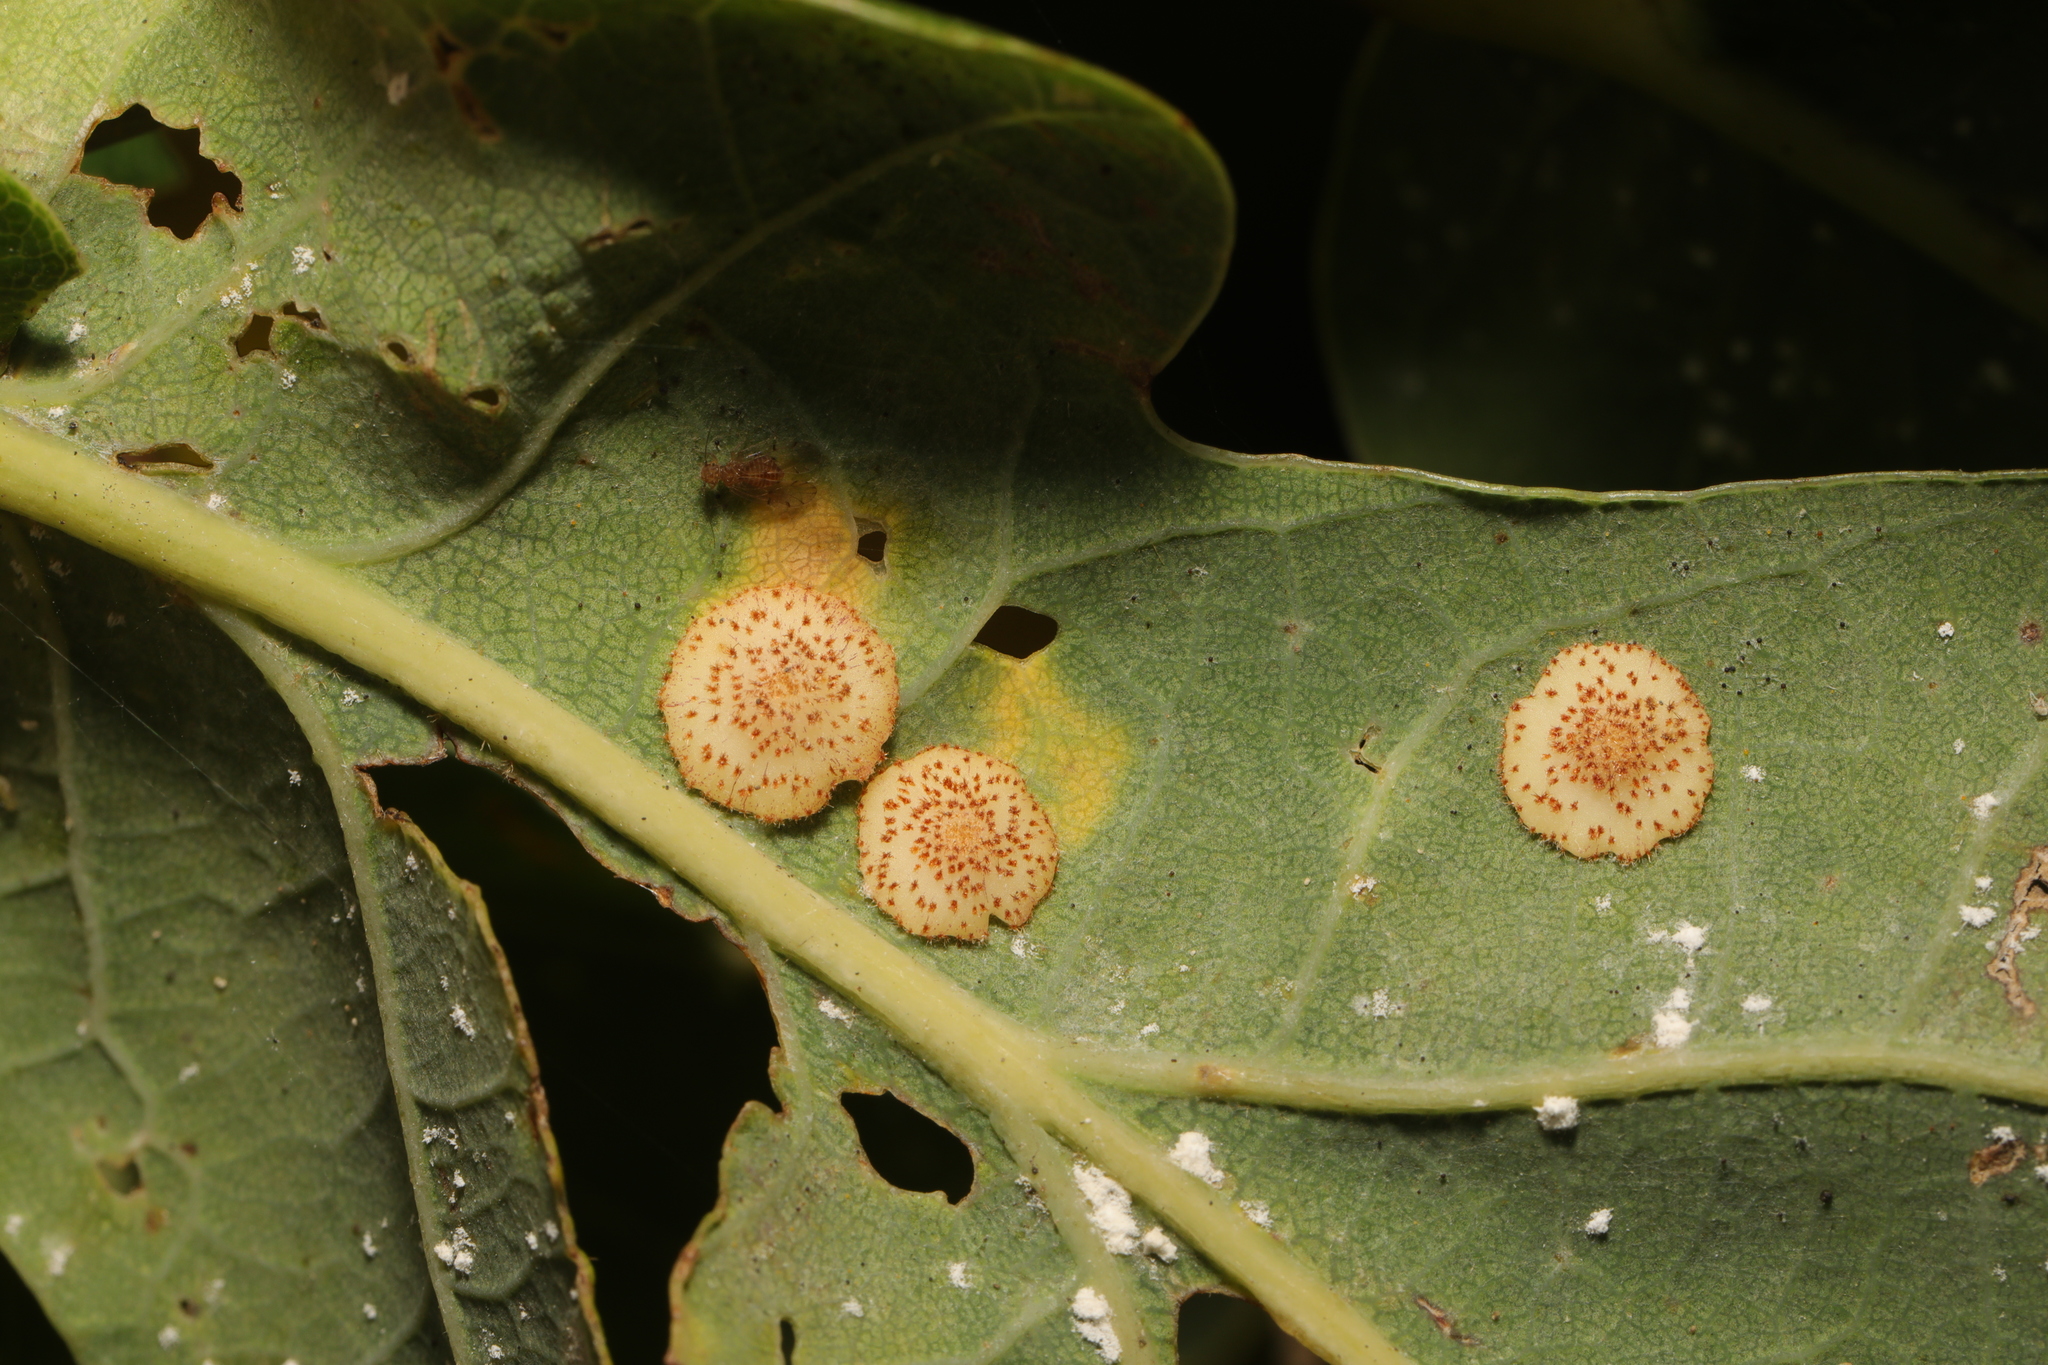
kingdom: Animalia
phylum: Arthropoda
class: Insecta
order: Hymenoptera
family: Cynipidae
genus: Neuroterus
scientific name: Neuroterus quercusbaccarum
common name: Common spangle gall
